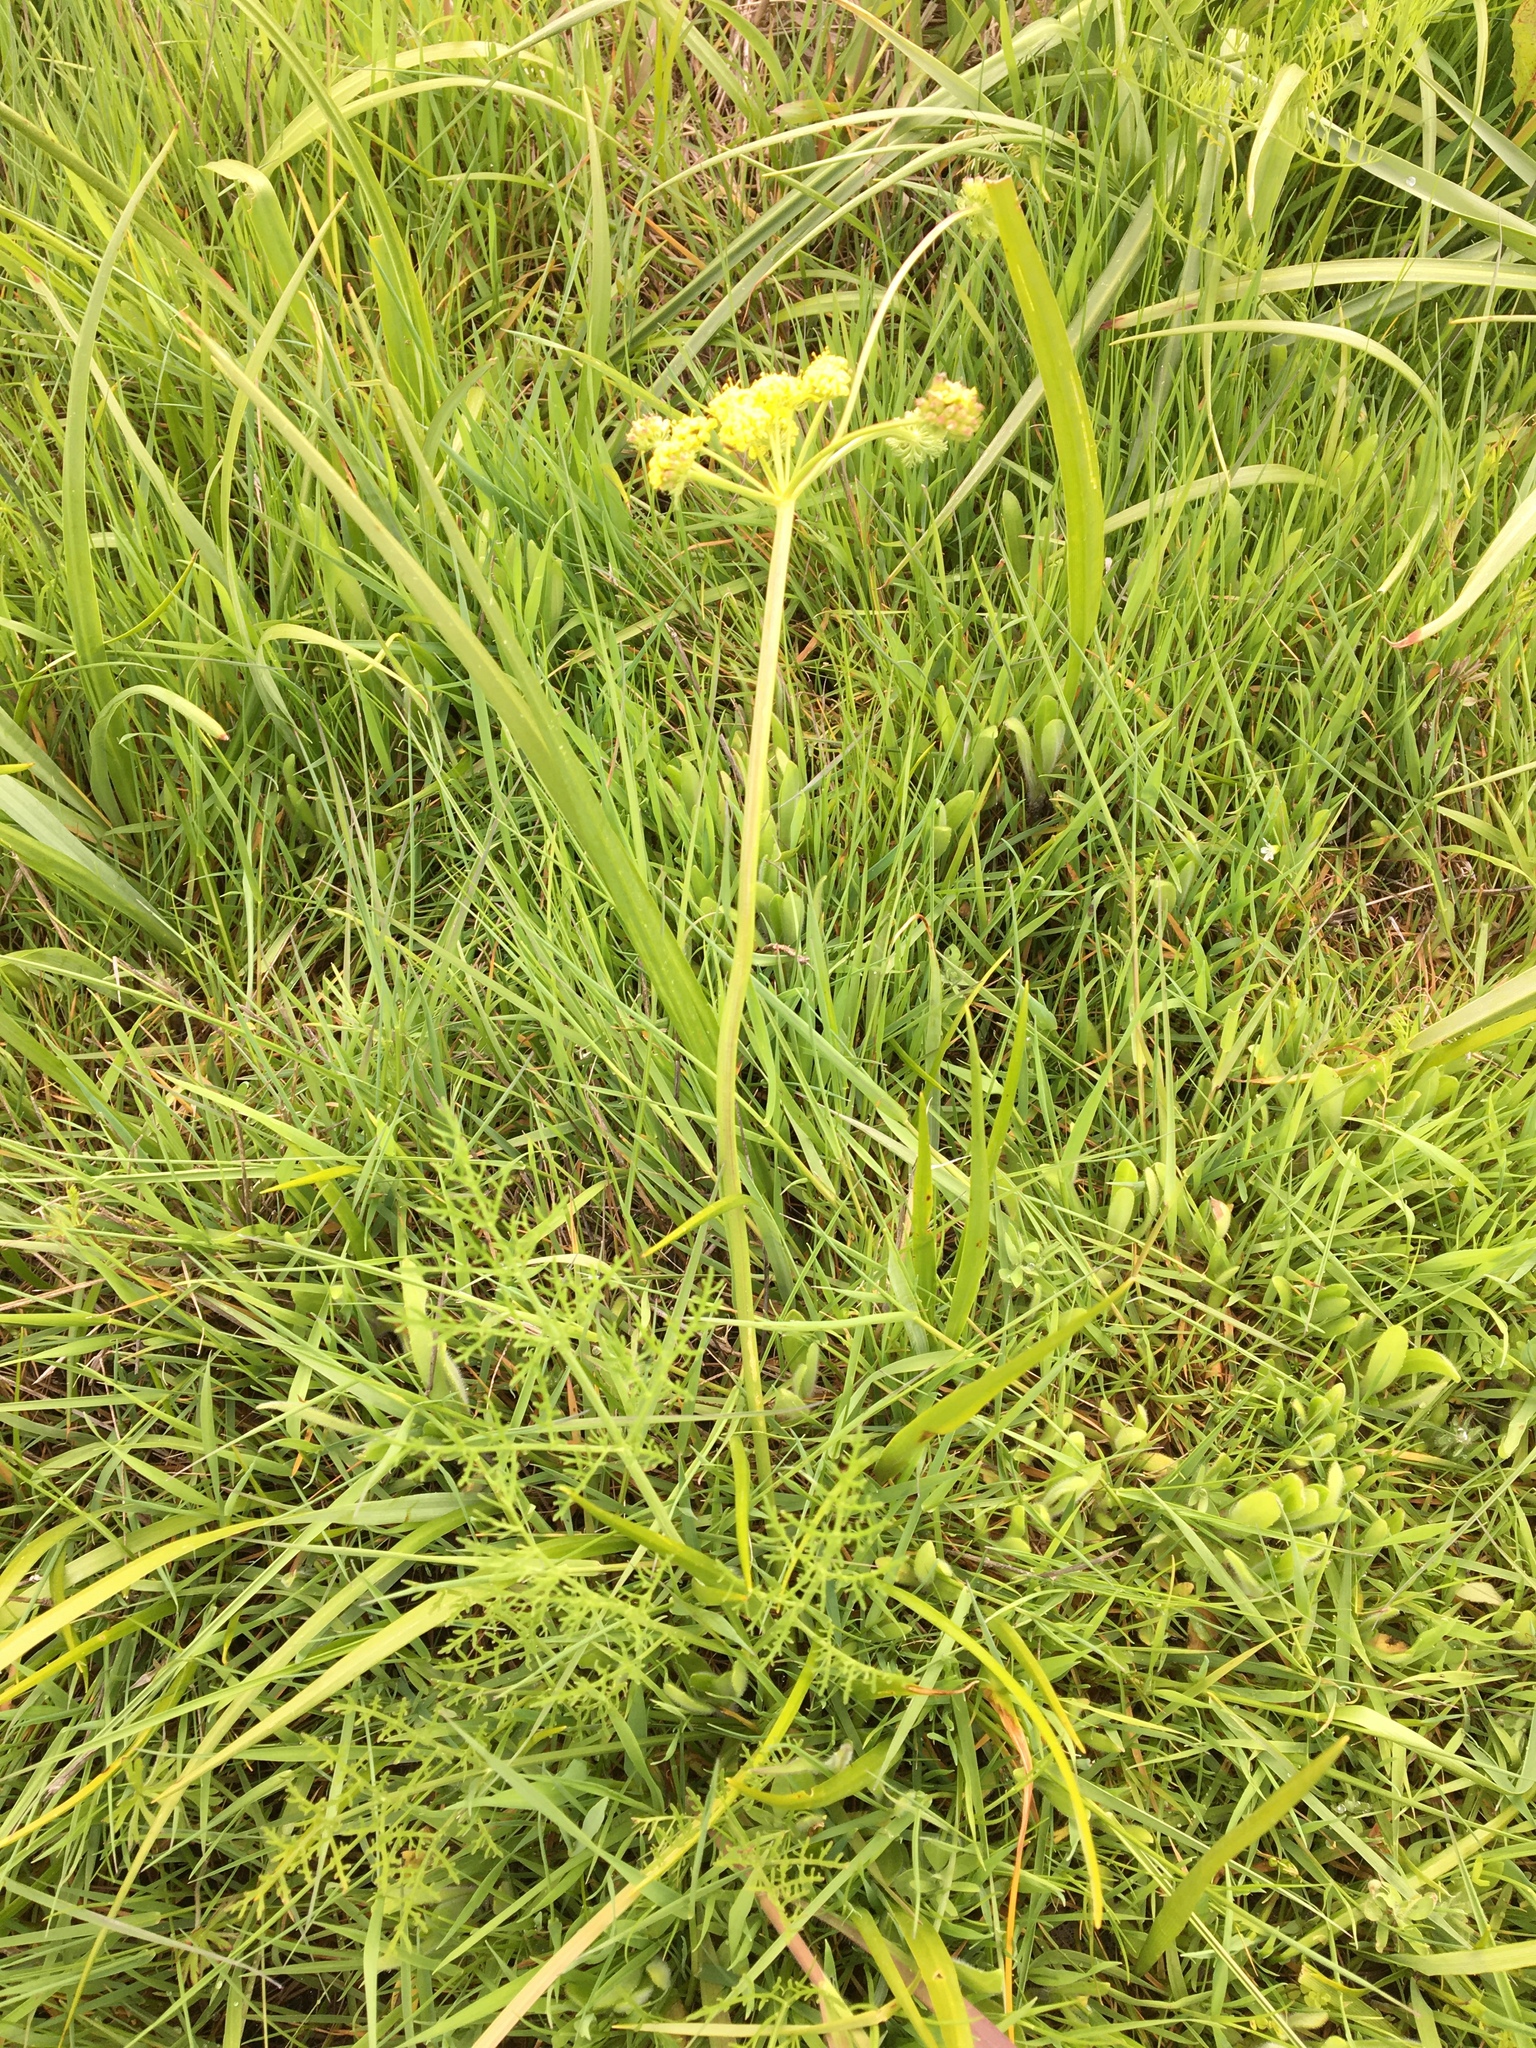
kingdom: Plantae
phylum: Tracheophyta
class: Magnoliopsida
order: Apiales
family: Apiaceae
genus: Lomatium
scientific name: Lomatium bradshawii
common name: Bradshaw's desert-parsley
